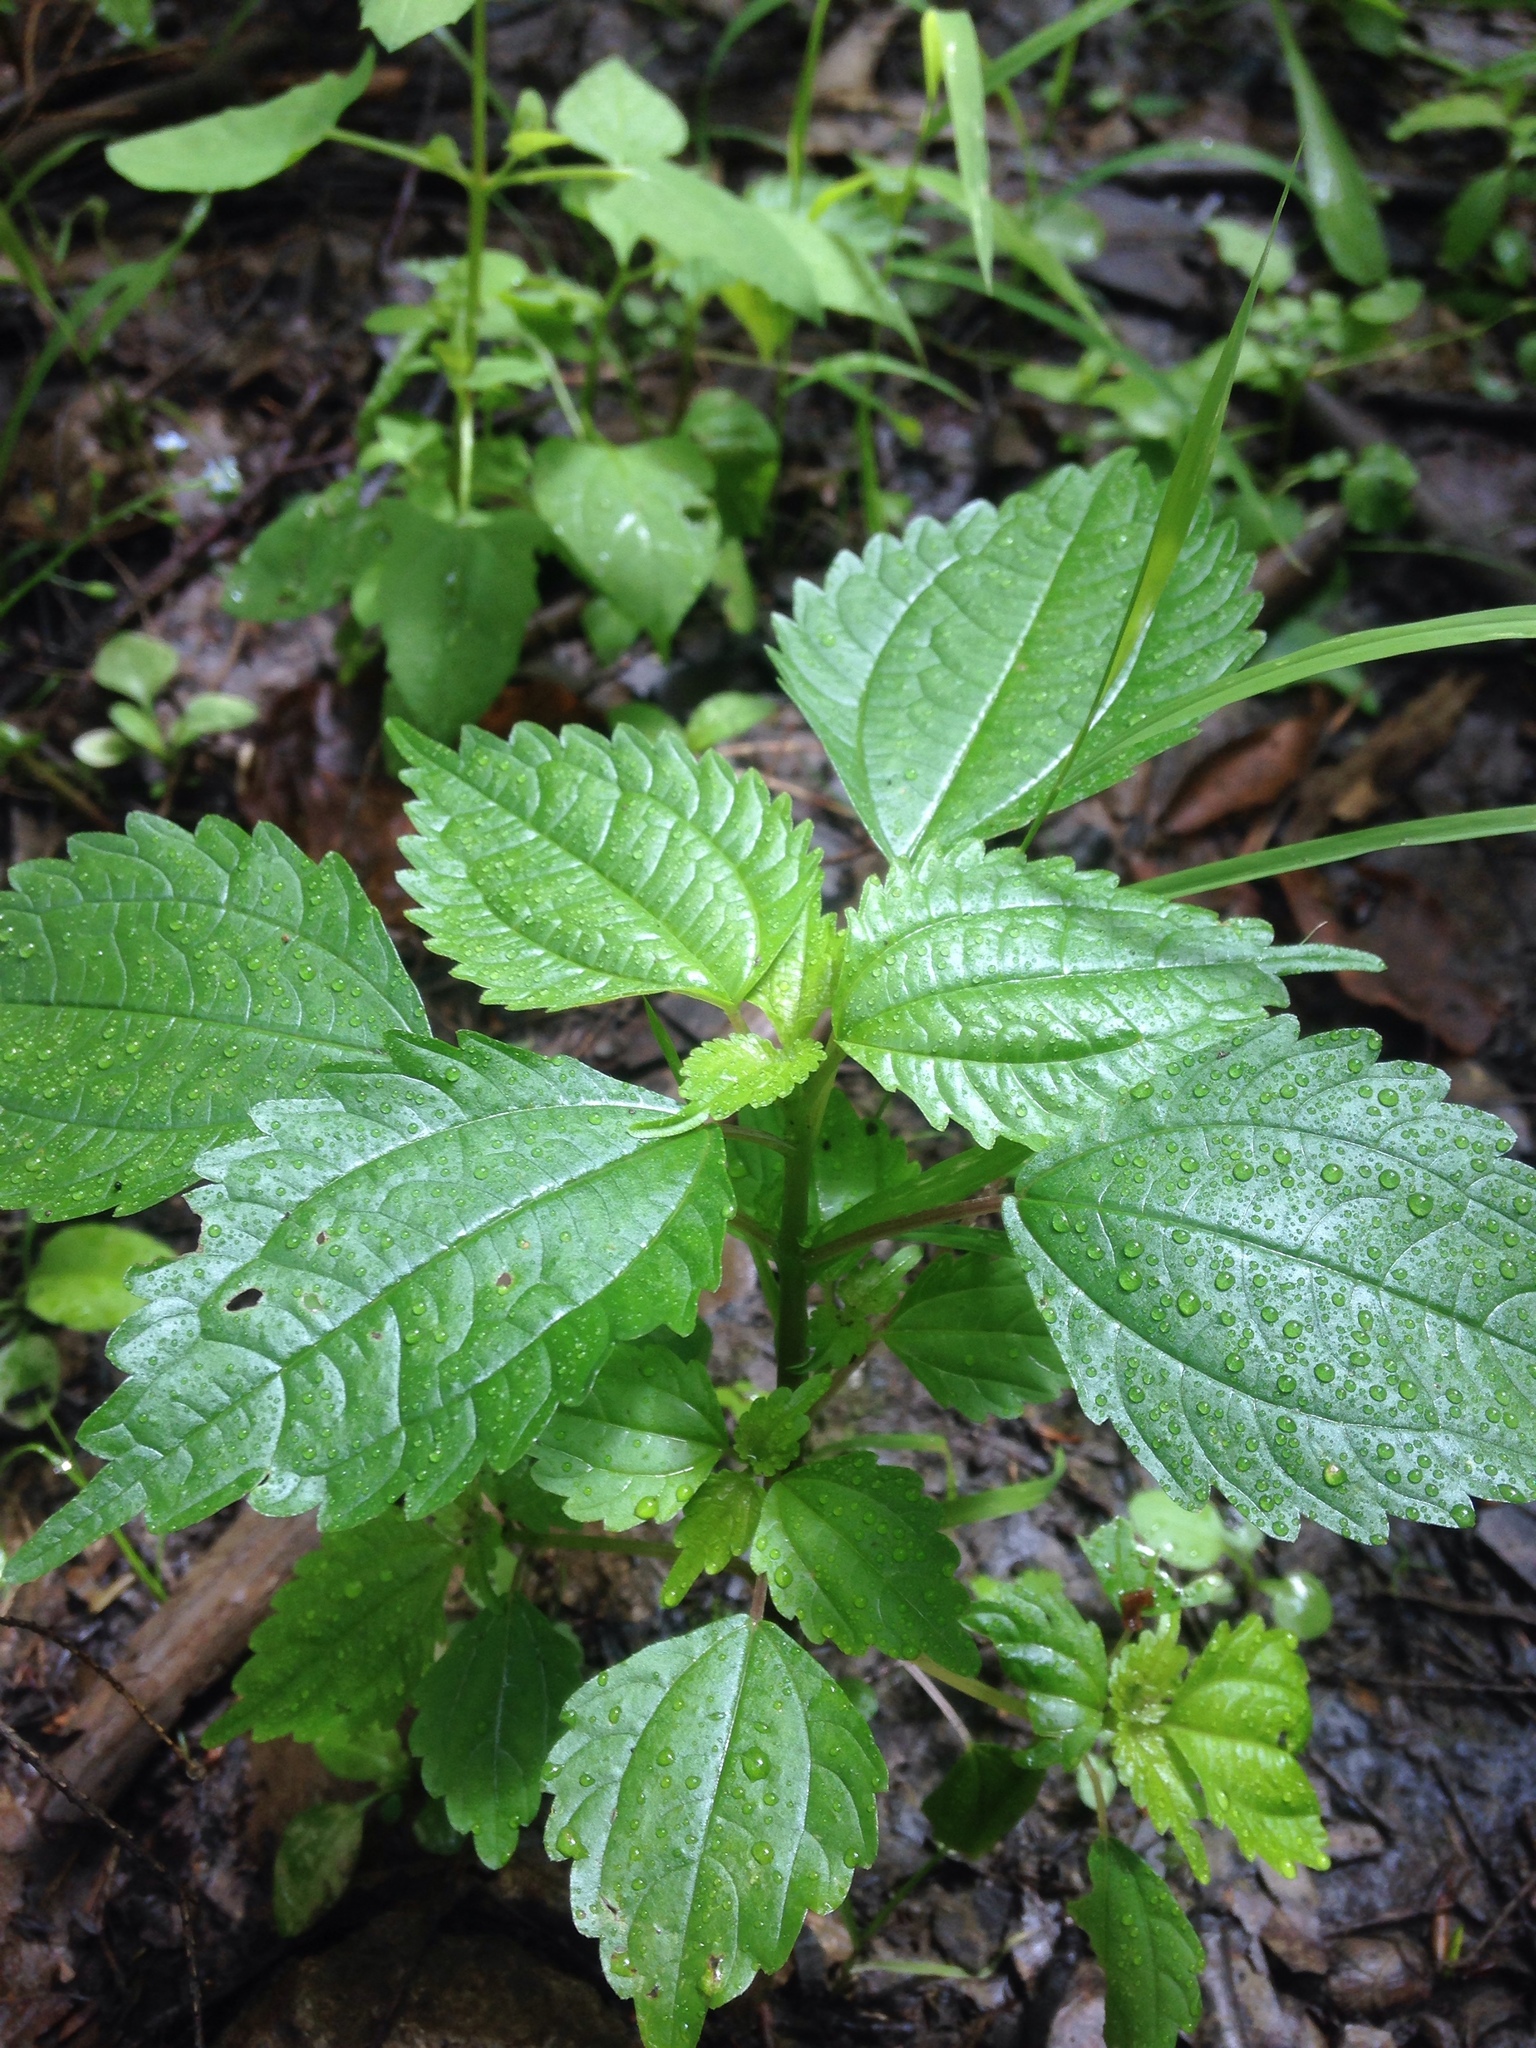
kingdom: Plantae
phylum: Tracheophyta
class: Magnoliopsida
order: Rosales
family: Urticaceae
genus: Pilea
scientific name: Pilea pumila
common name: Clearweed
